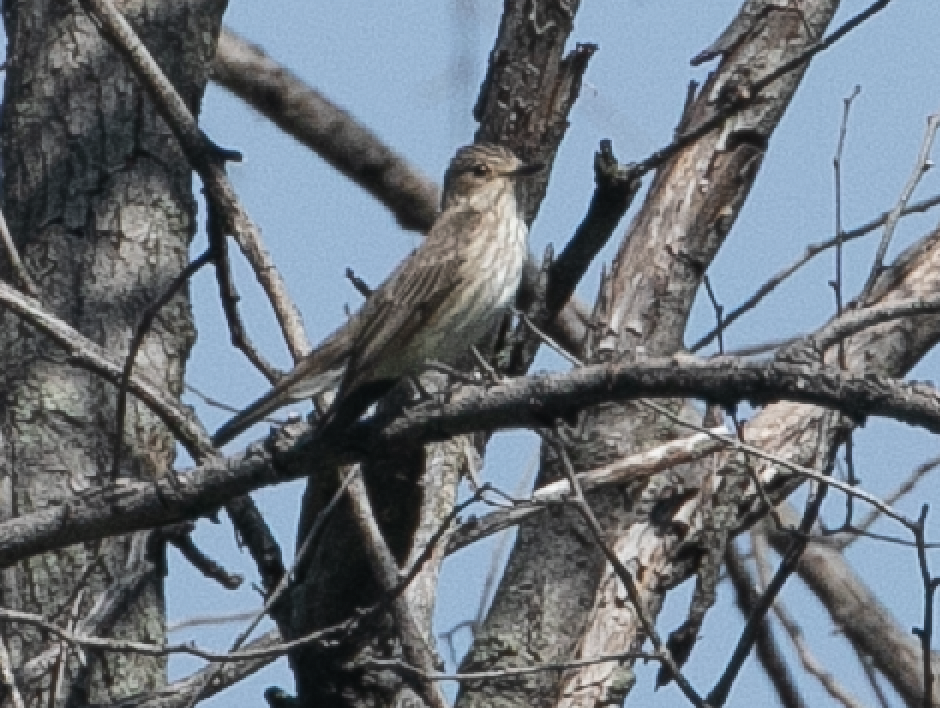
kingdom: Animalia
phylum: Chordata
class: Aves
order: Passeriformes
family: Muscicapidae
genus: Muscicapa
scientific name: Muscicapa striata
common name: Spotted flycatcher
